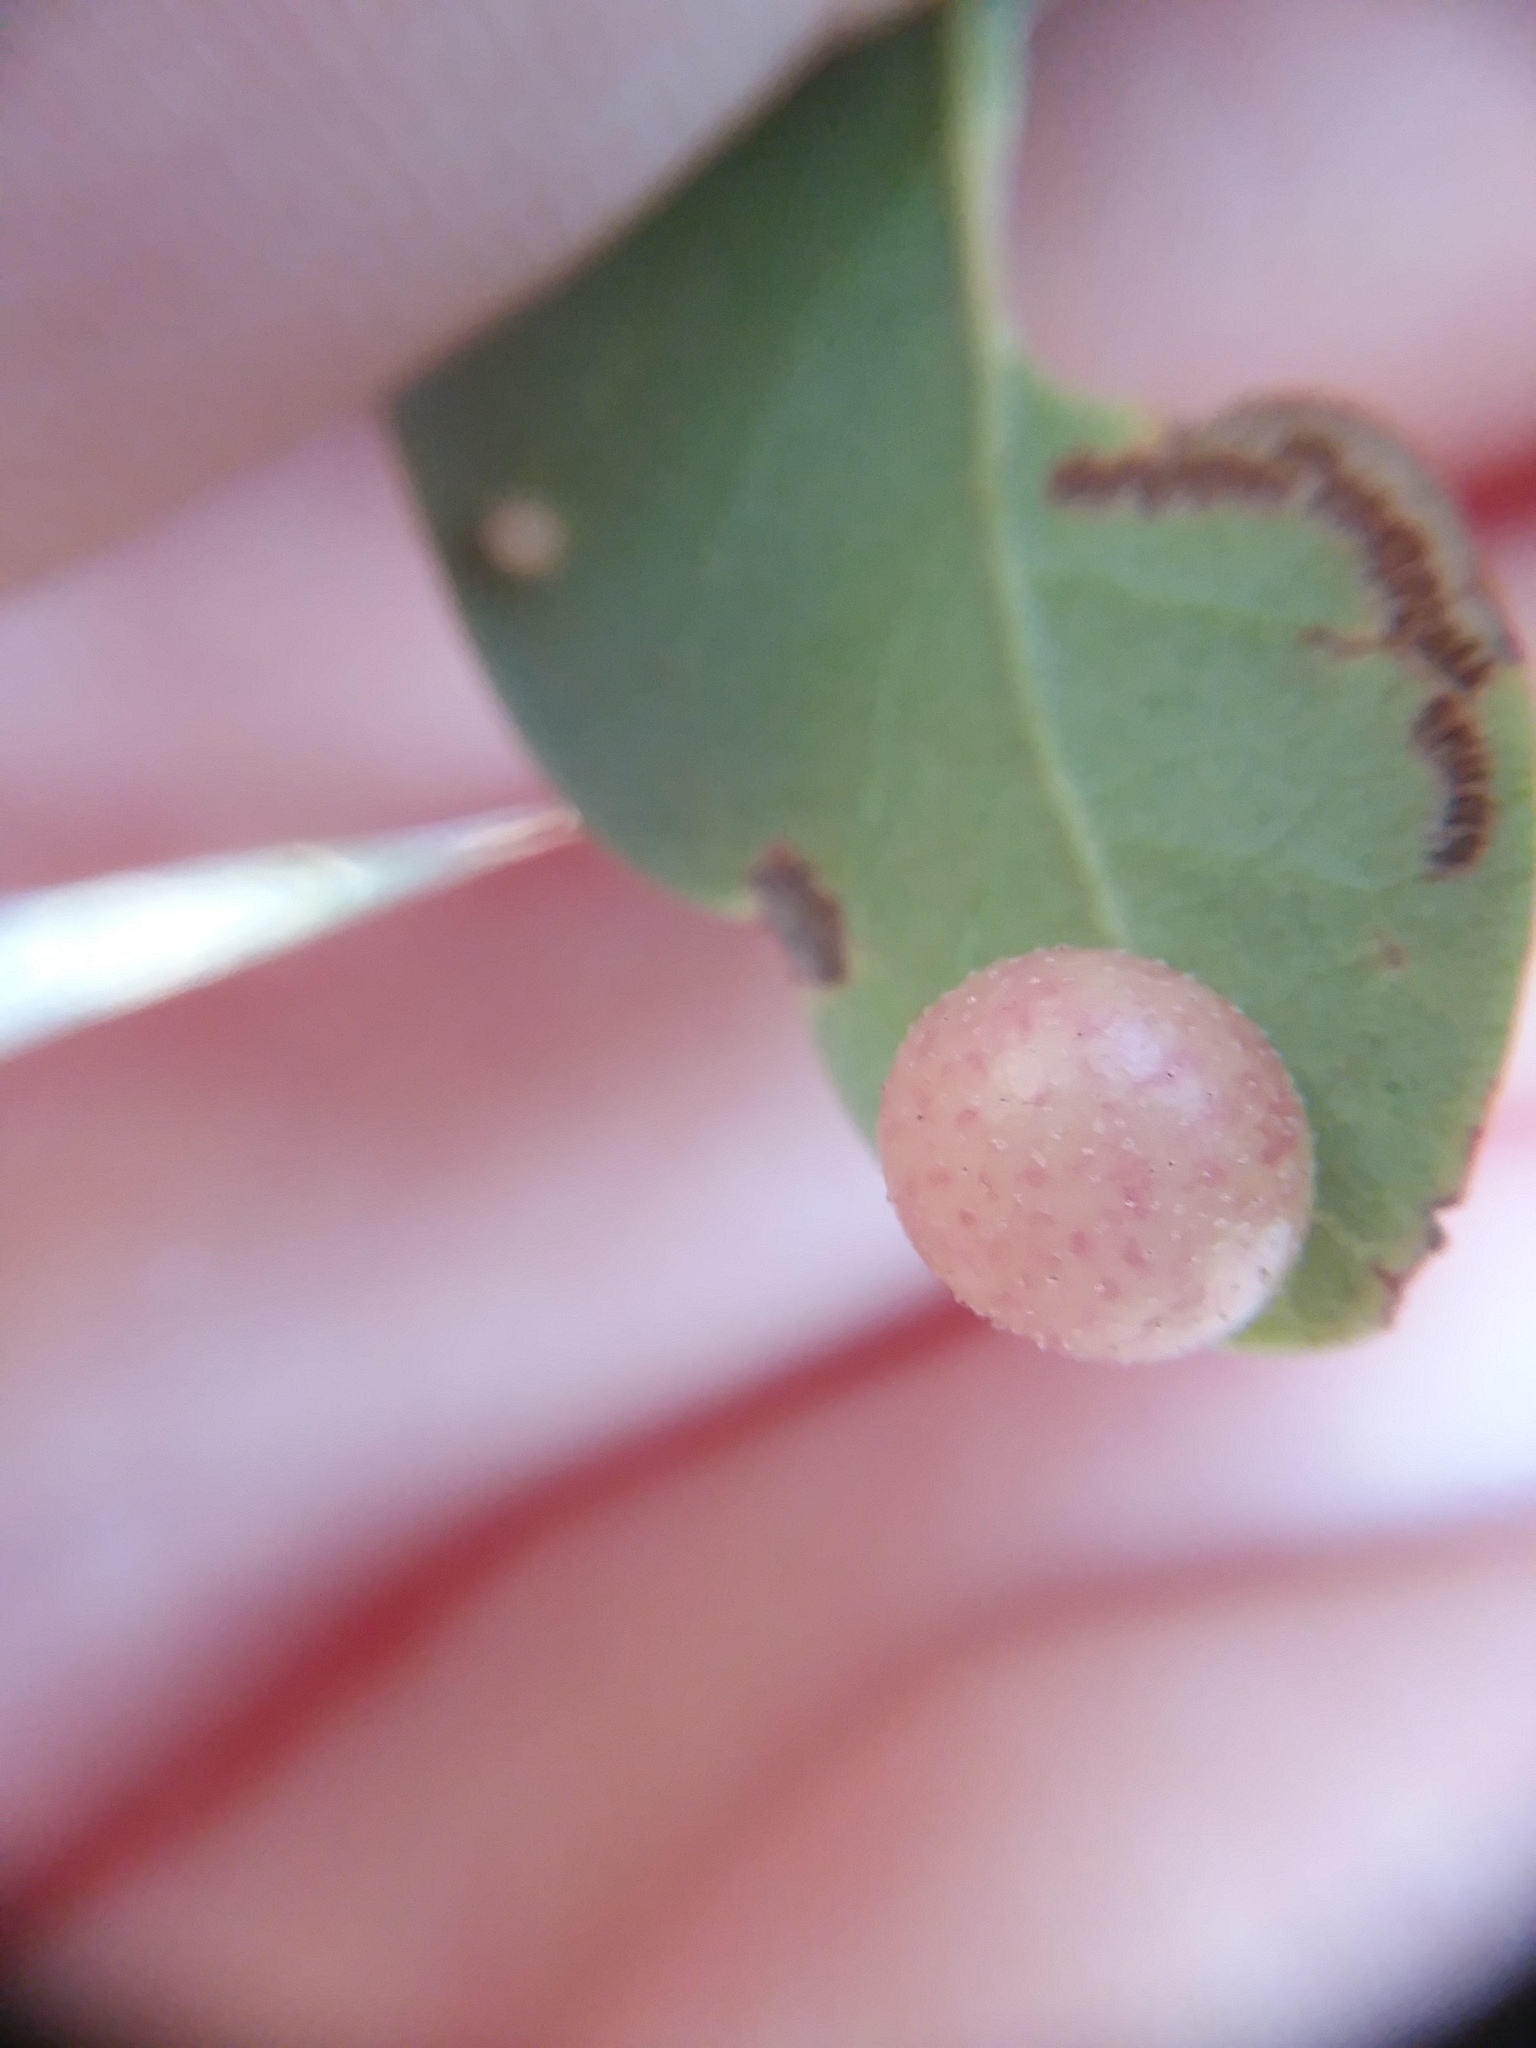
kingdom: Animalia
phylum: Arthropoda
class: Insecta
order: Hymenoptera
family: Cynipidae
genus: Belonocnema
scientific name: Belonocnema treatae
